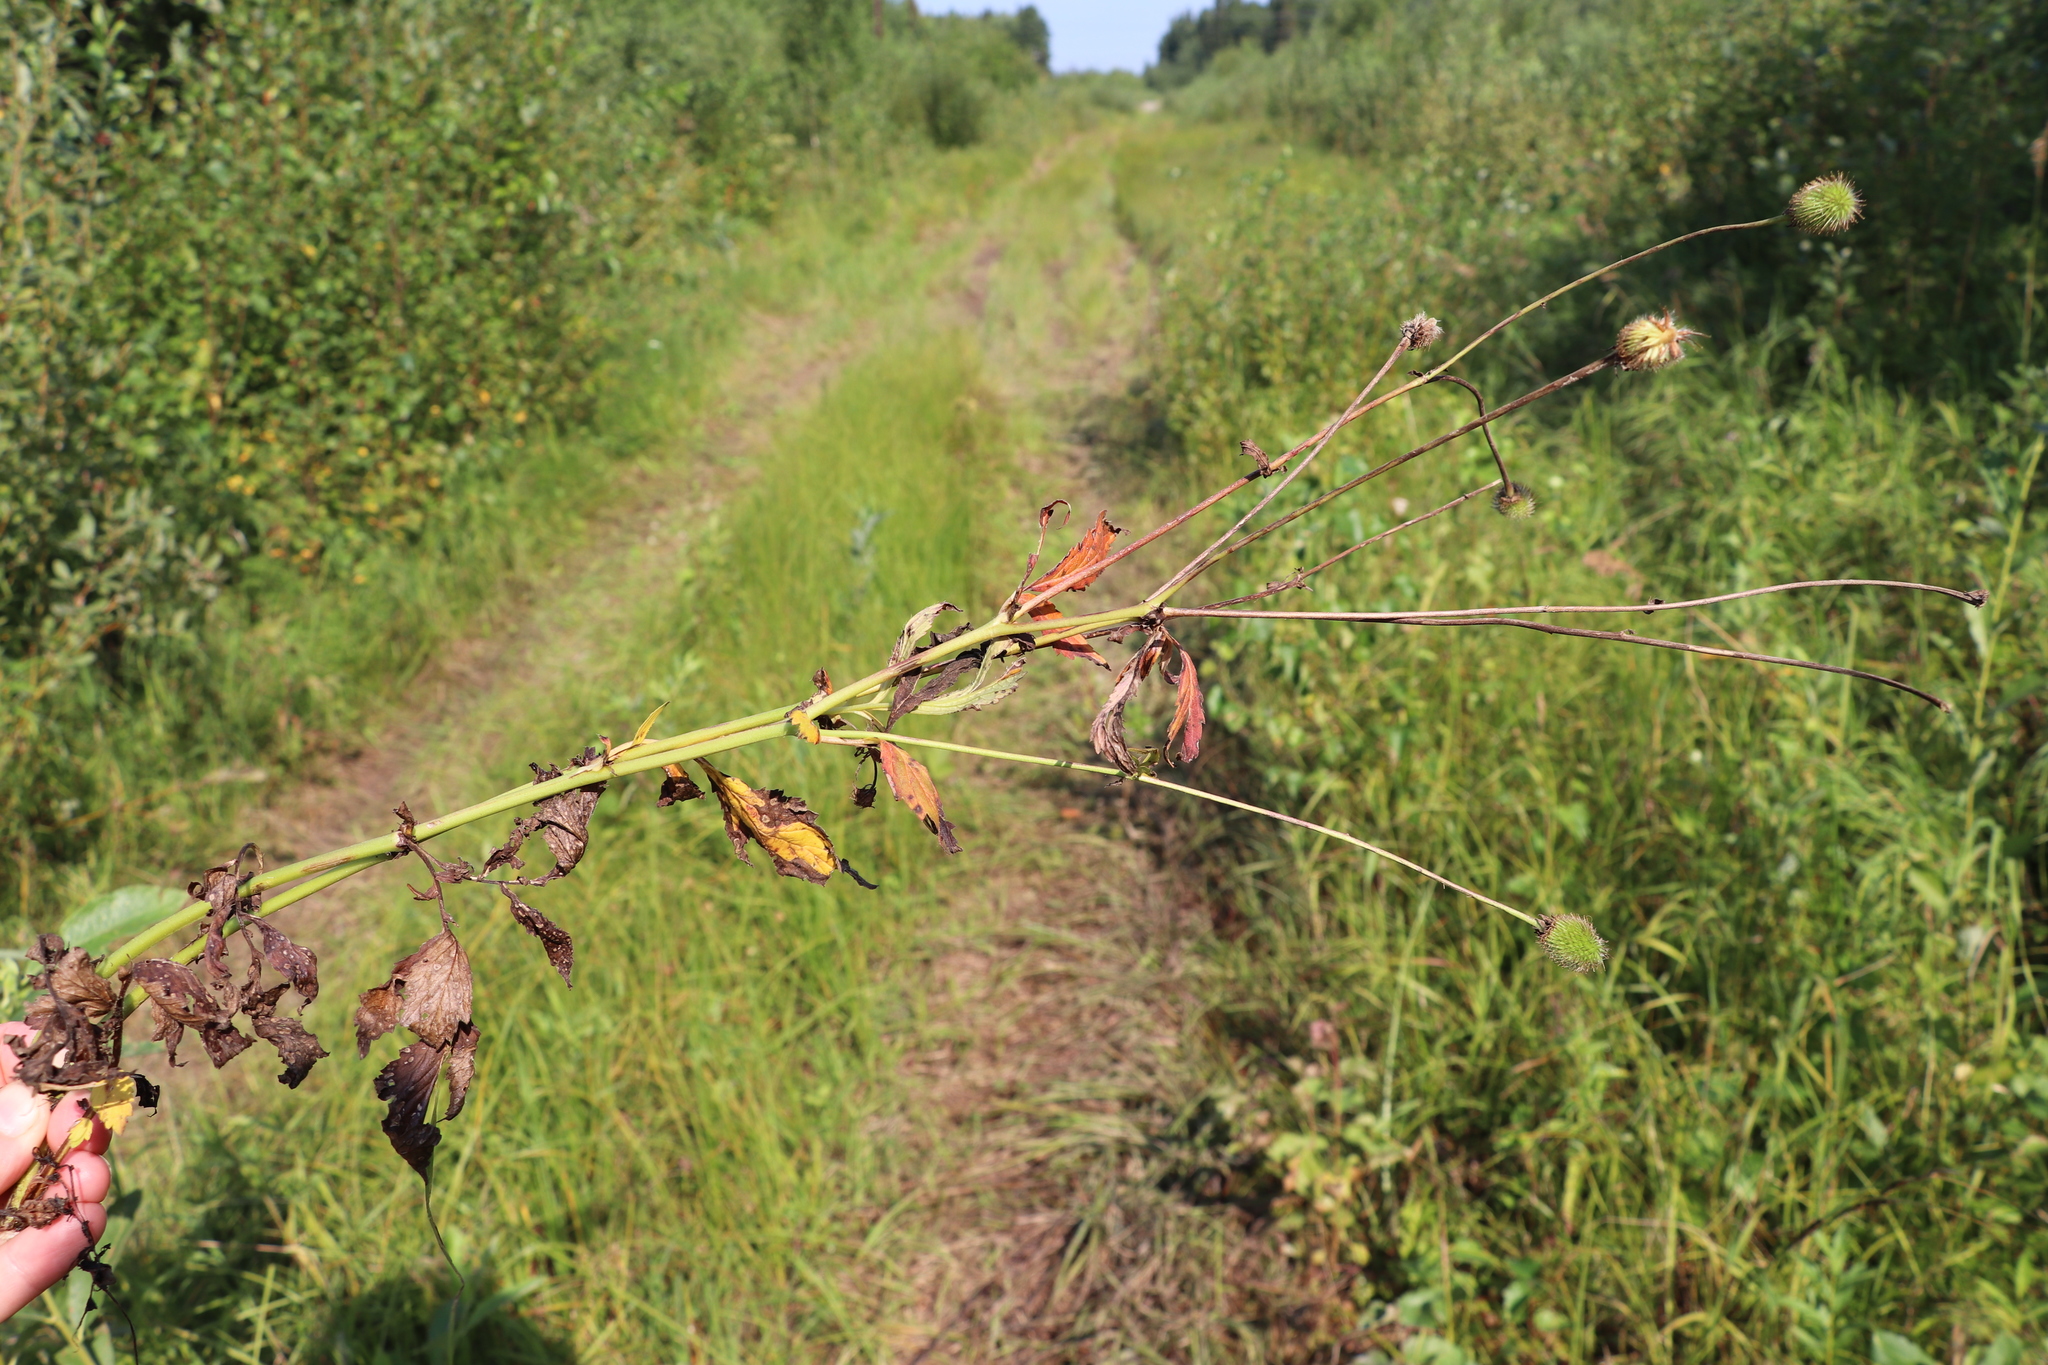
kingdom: Plantae
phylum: Tracheophyta
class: Magnoliopsida
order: Rosales
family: Rosaceae
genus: Geum
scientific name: Geum aleppicum
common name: Yellow avens
